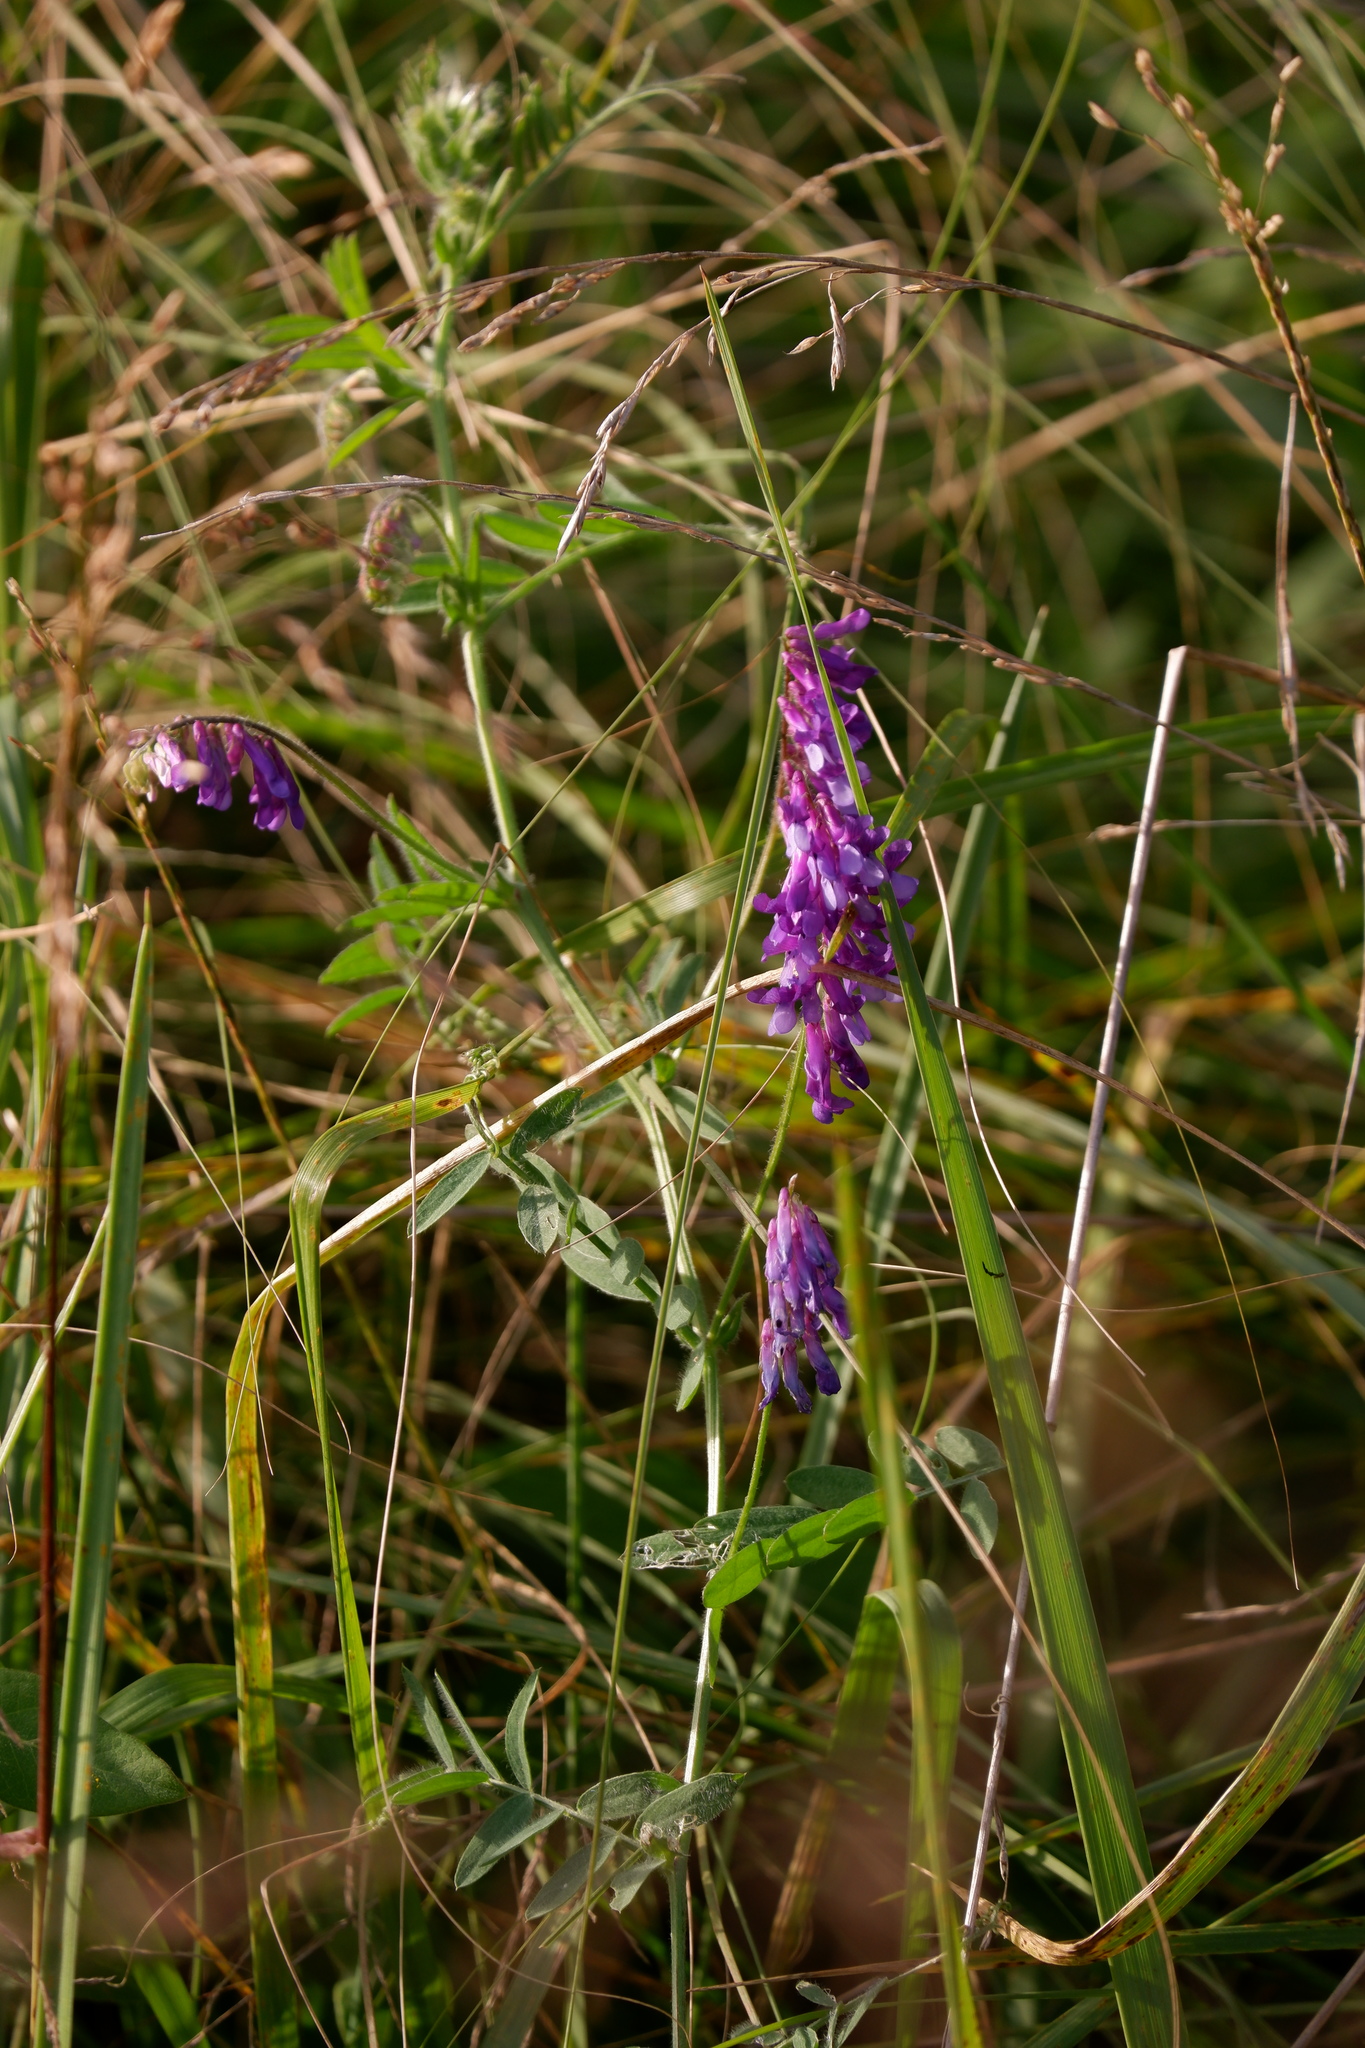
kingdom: Plantae
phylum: Tracheophyta
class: Magnoliopsida
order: Fabales
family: Fabaceae
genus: Vicia
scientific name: Vicia villosa
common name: Fodder vetch
